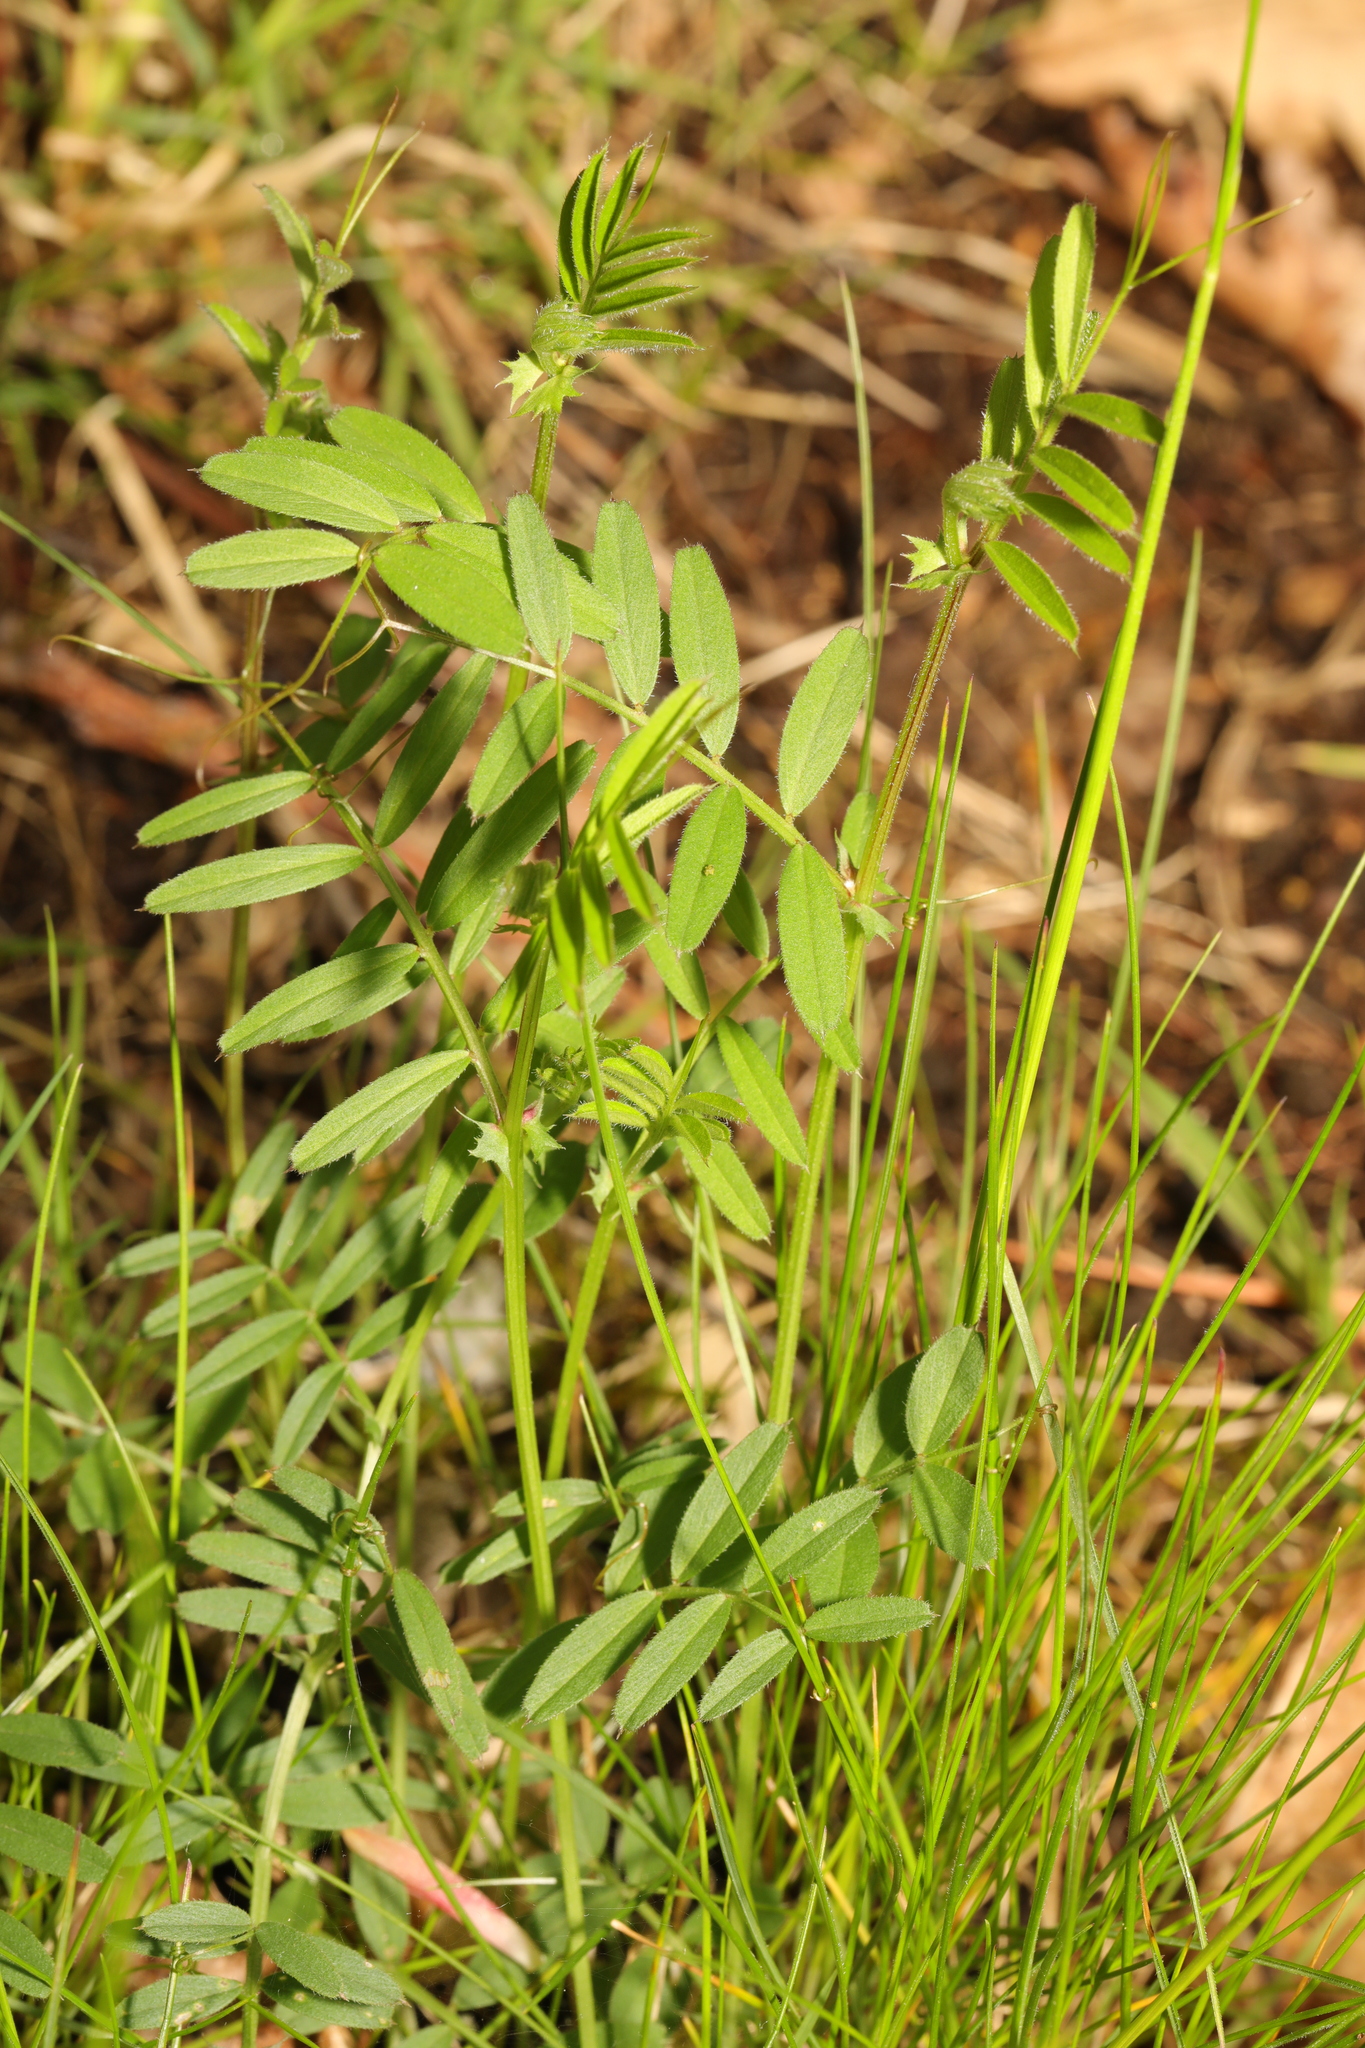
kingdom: Plantae
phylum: Tracheophyta
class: Magnoliopsida
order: Fabales
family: Fabaceae
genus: Vicia
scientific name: Vicia sativa
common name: Garden vetch
